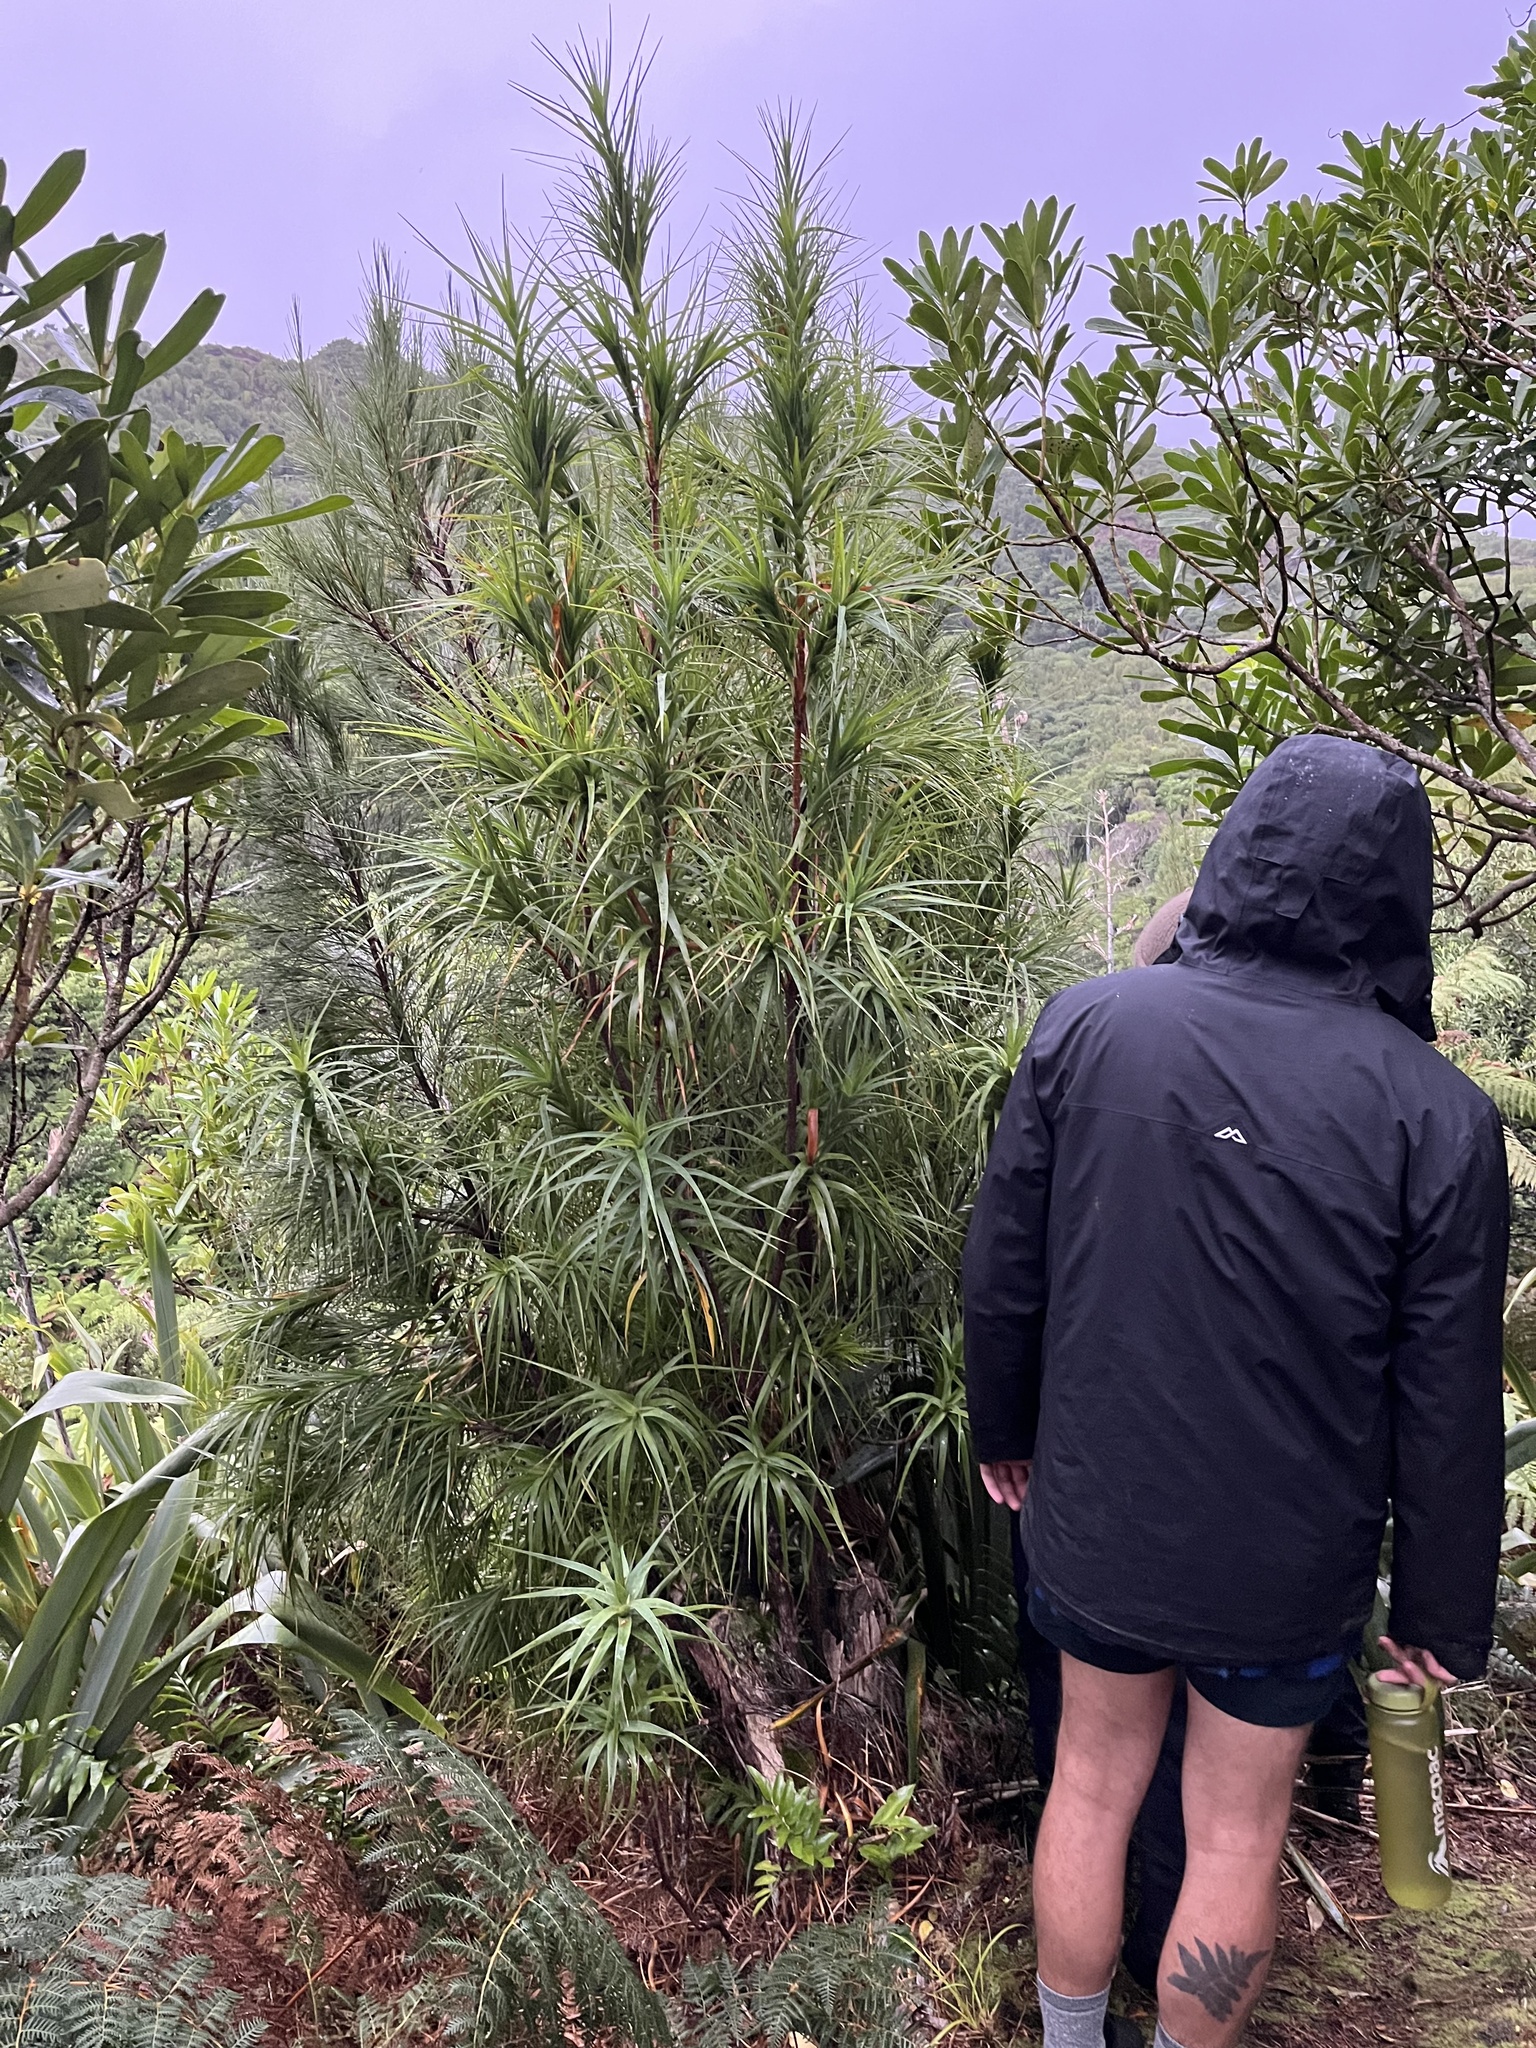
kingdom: Plantae
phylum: Tracheophyta
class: Magnoliopsida
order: Ericales
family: Ericaceae
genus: Dracophyllum
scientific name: Dracophyllum arboreum
